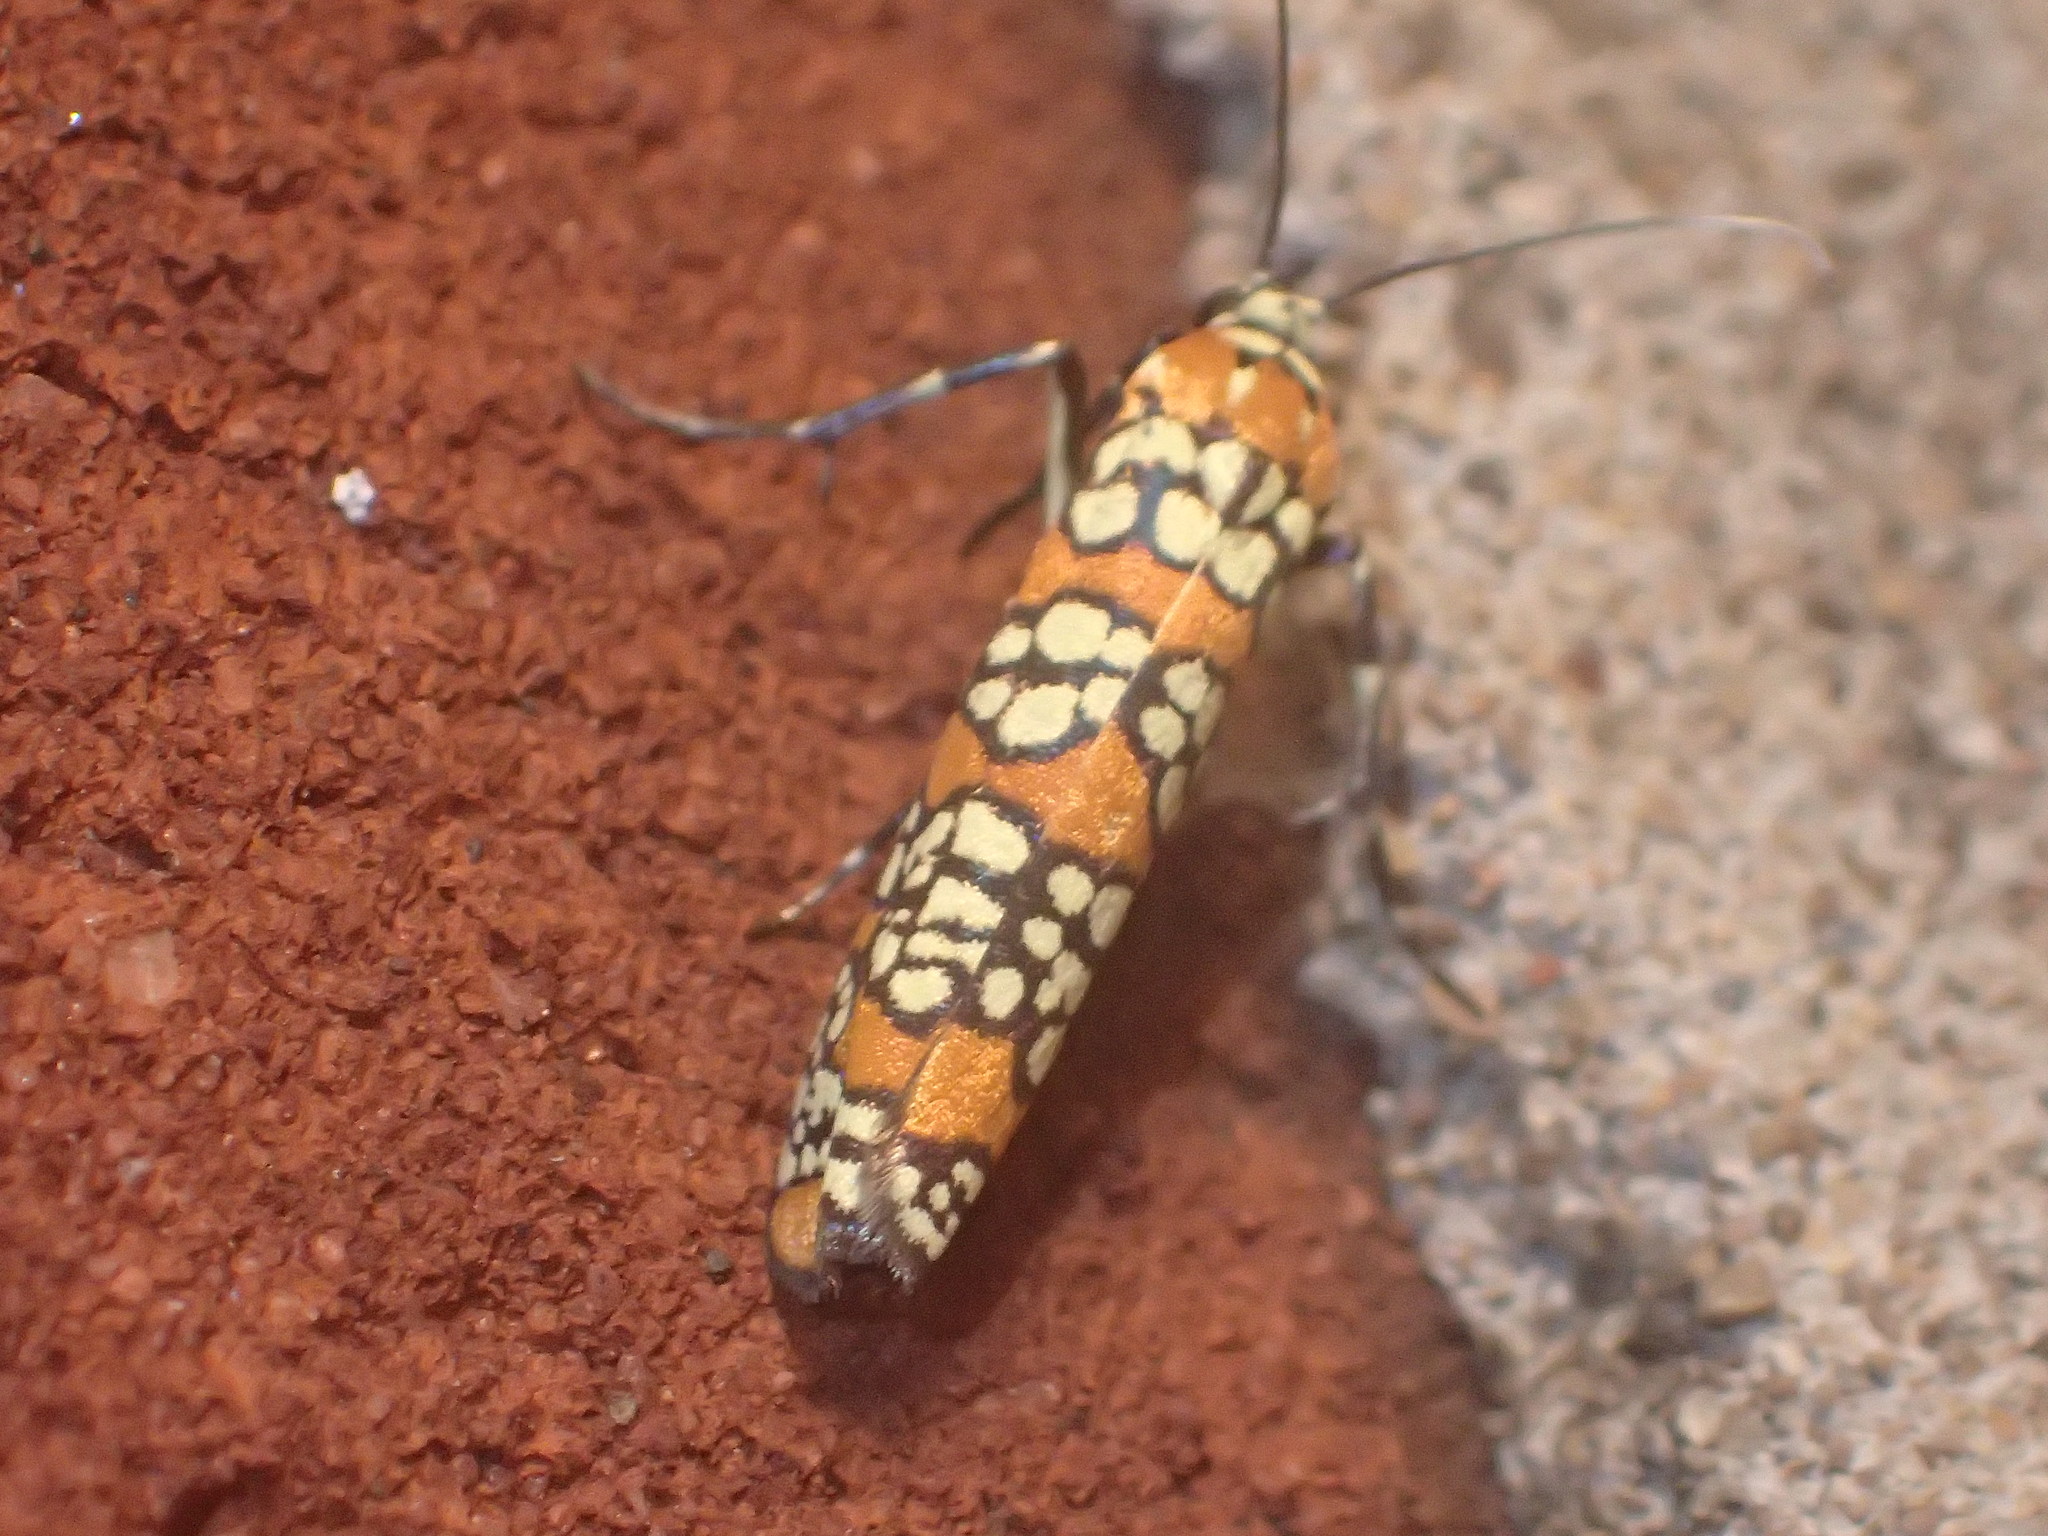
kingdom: Animalia
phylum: Arthropoda
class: Insecta
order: Lepidoptera
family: Attevidae
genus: Atteva
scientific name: Atteva punctella
